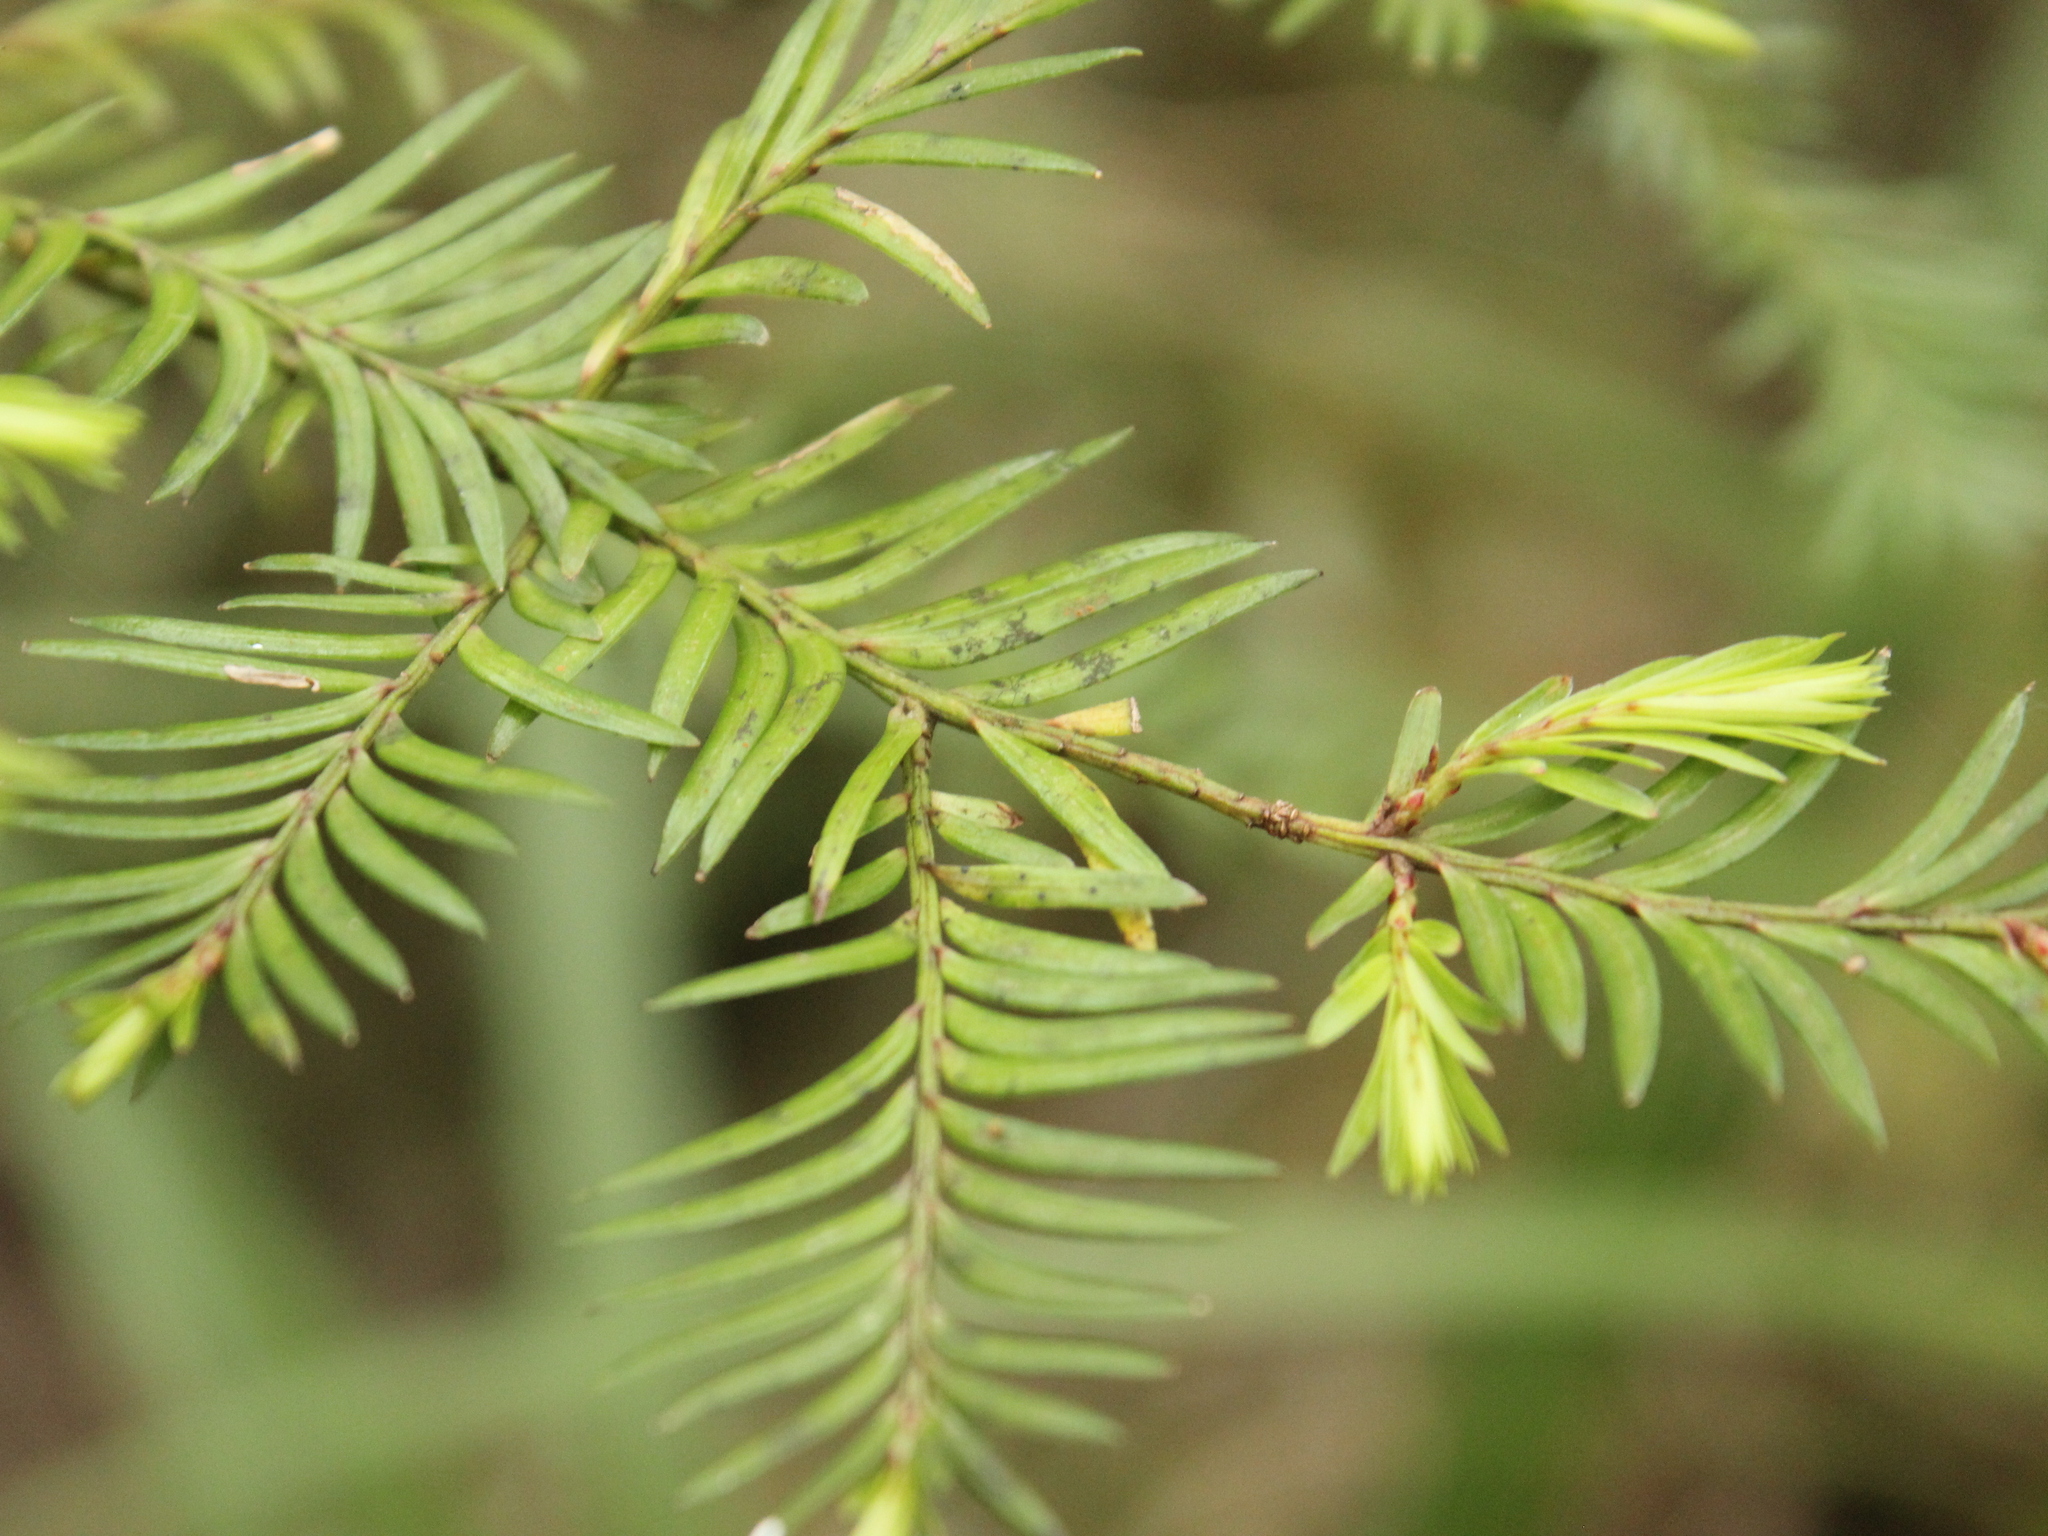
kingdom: Plantae
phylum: Tracheophyta
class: Pinopsida
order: Pinales
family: Podocarpaceae
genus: Prumnopitys
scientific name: Prumnopitys ferruginea
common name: Brown pine
